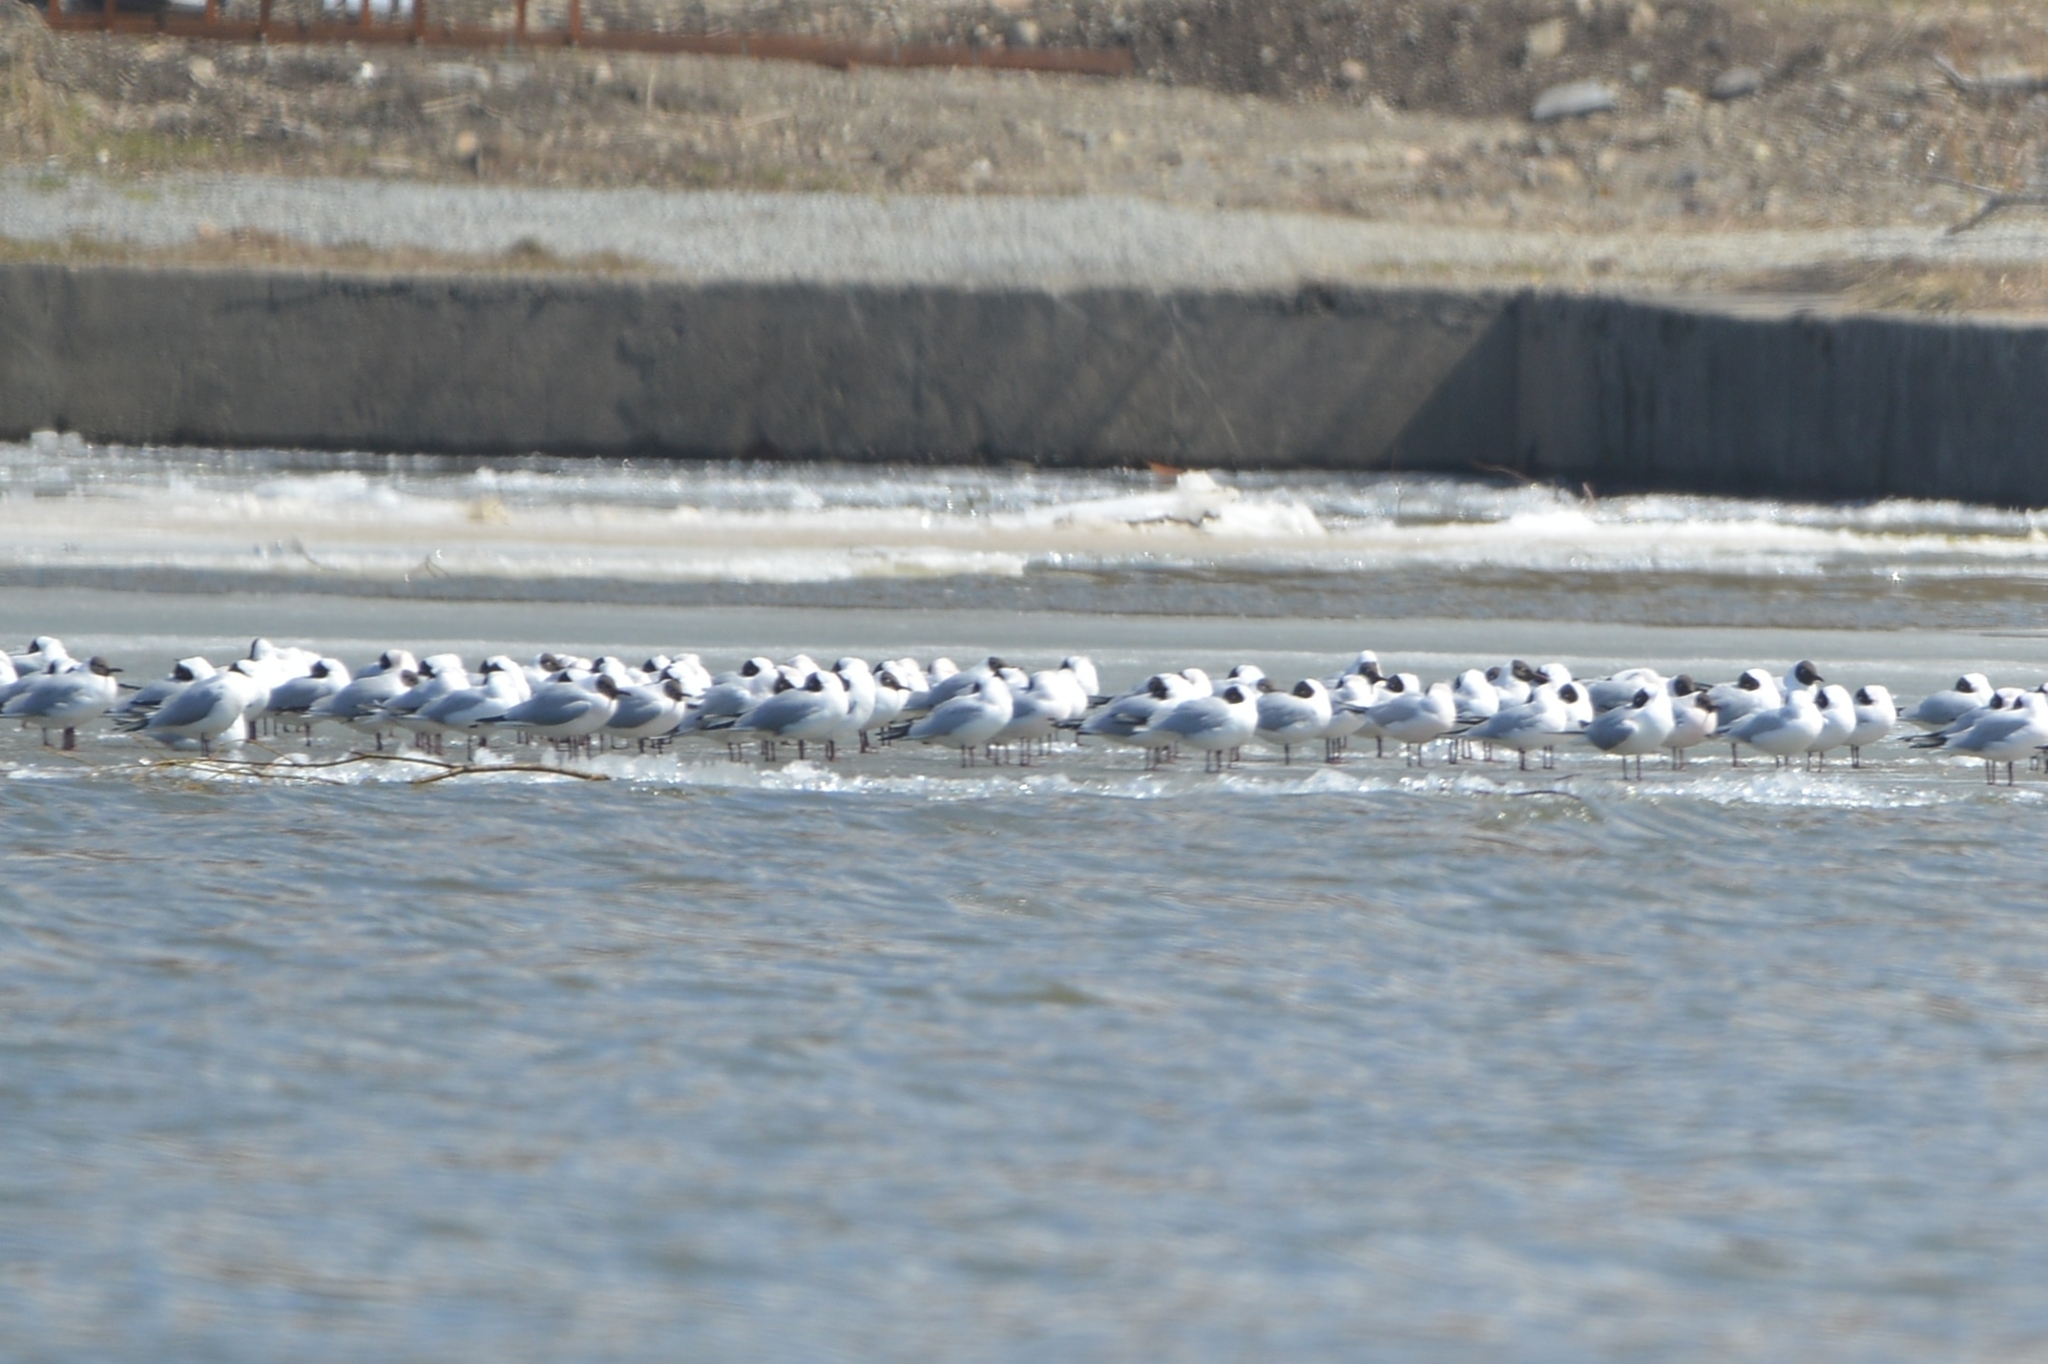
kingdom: Animalia
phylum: Chordata
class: Aves
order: Charadriiformes
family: Laridae
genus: Chroicocephalus
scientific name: Chroicocephalus ridibundus
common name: Black-headed gull
